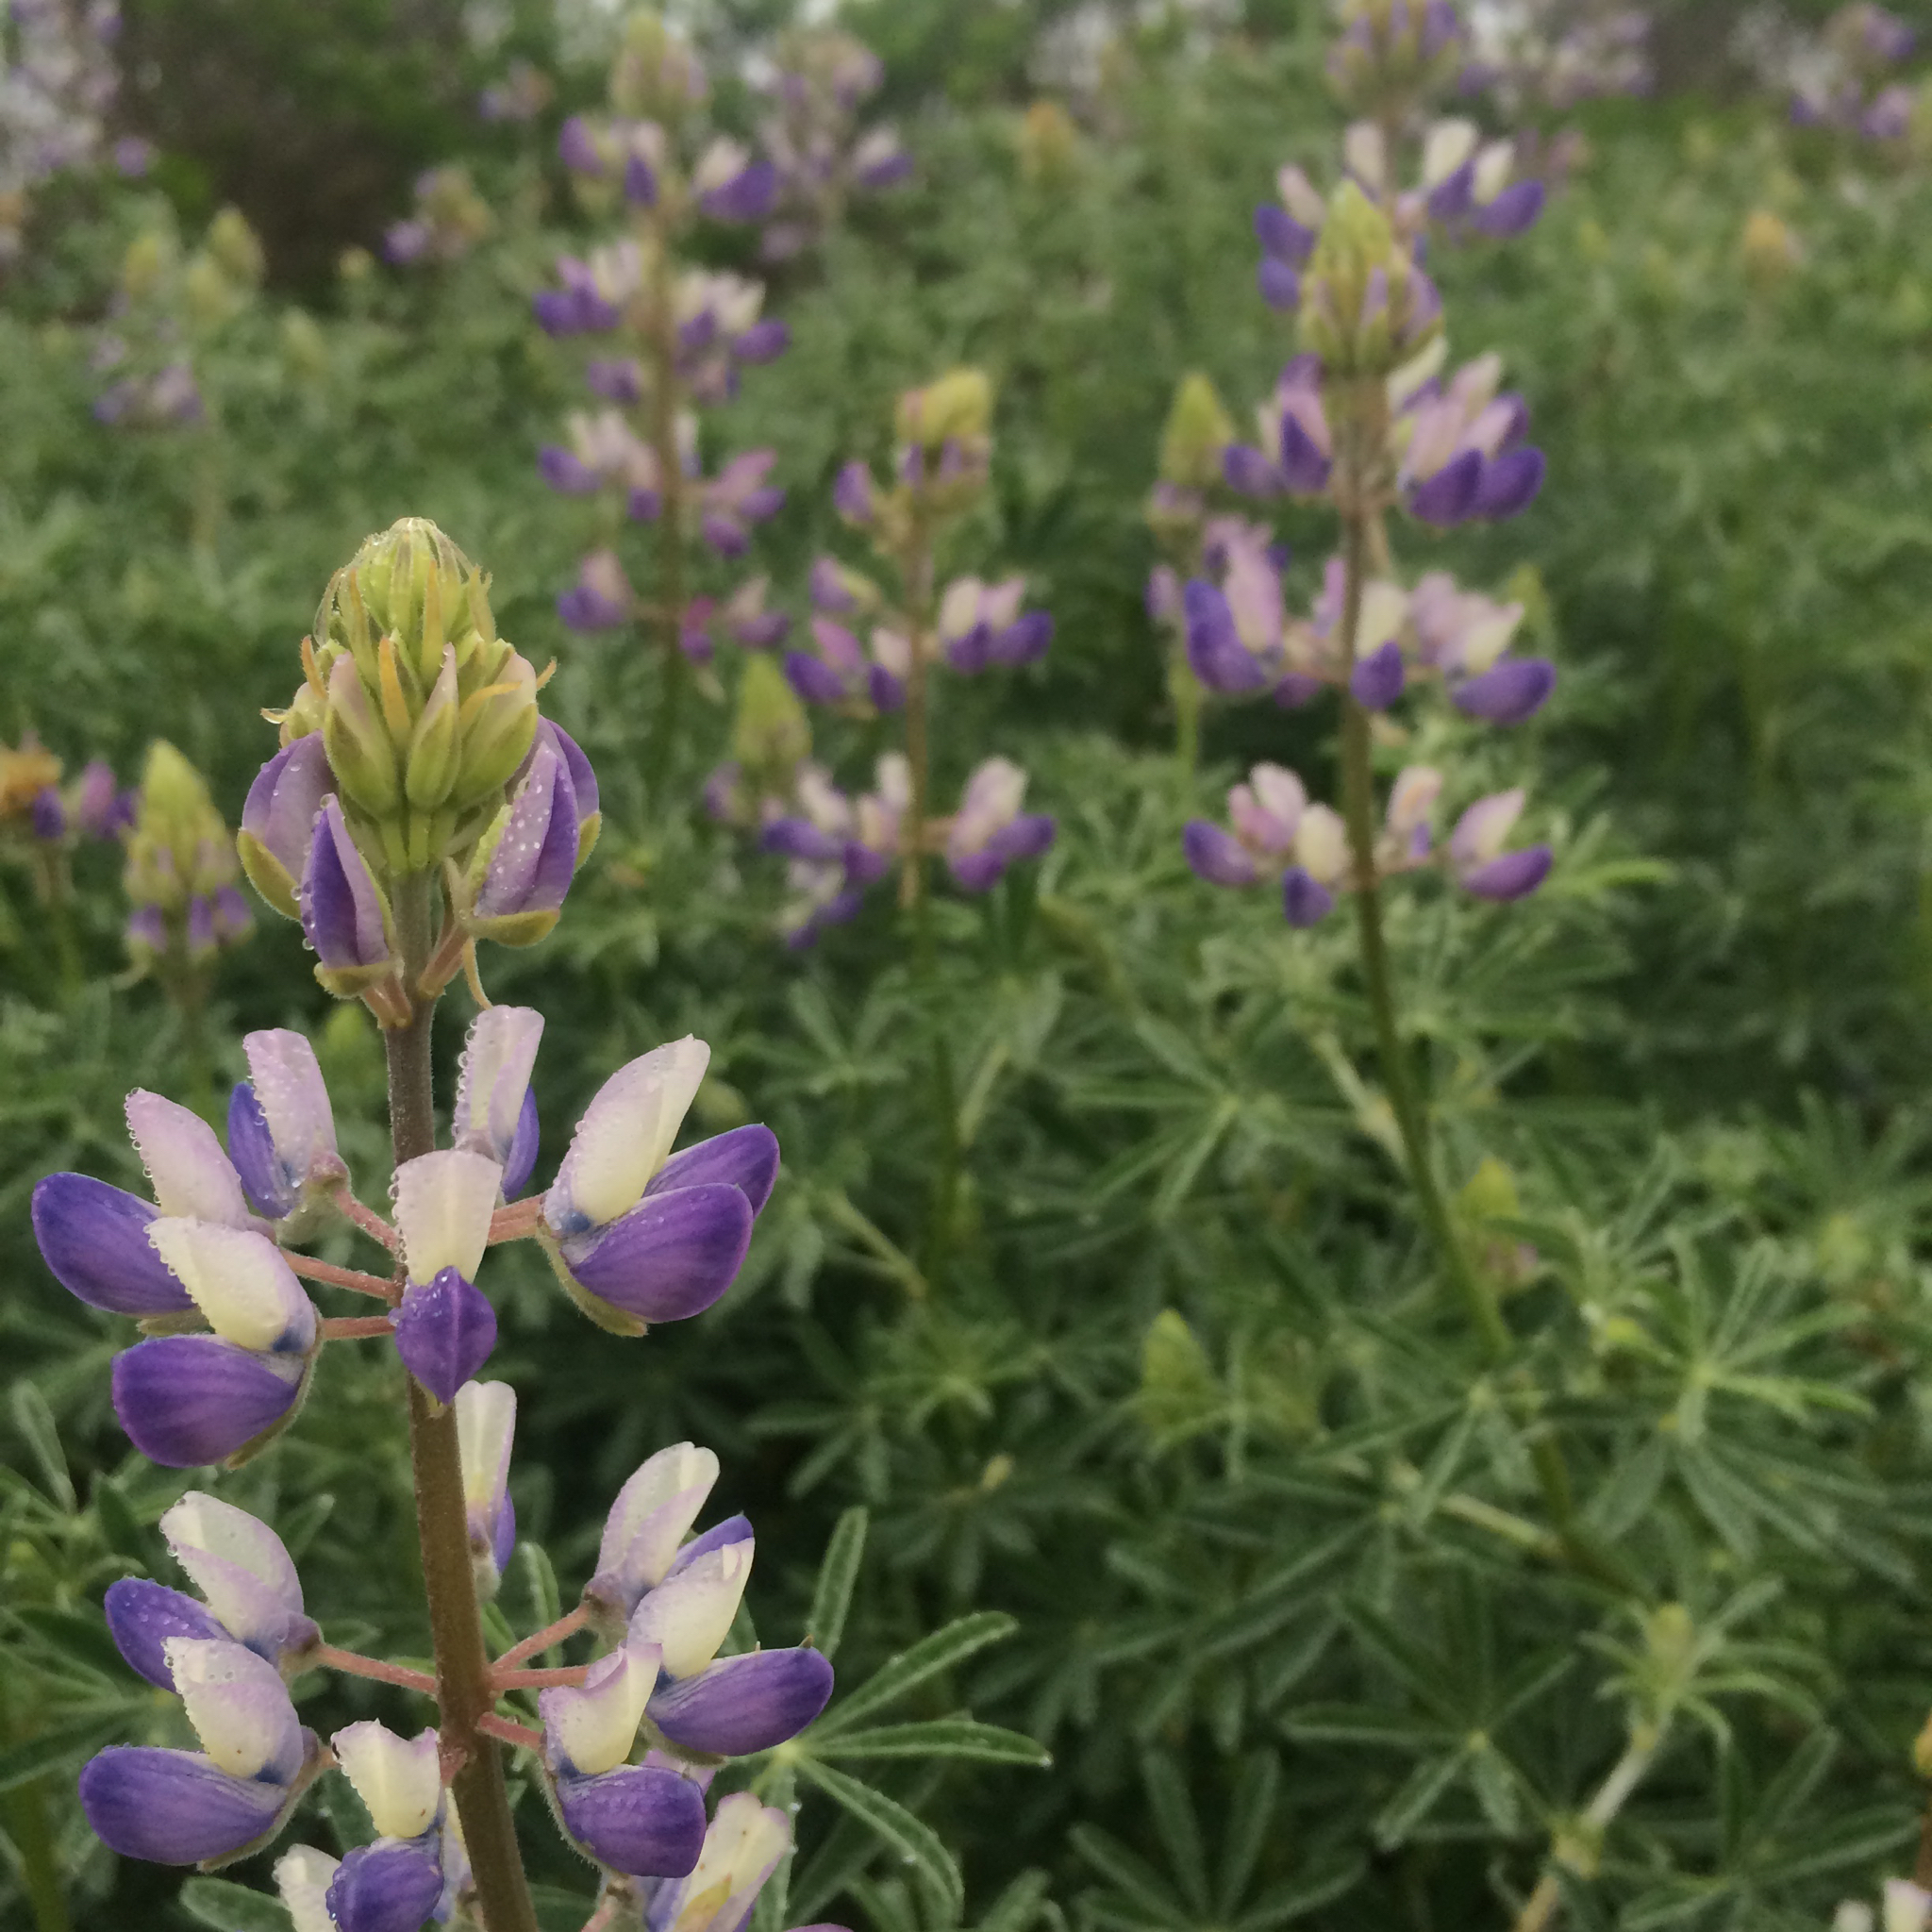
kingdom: Plantae
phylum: Tracheophyta
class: Magnoliopsida
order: Fabales
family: Fabaceae
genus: Lupinus
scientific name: Lupinus albifrons
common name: Foothill lupine
